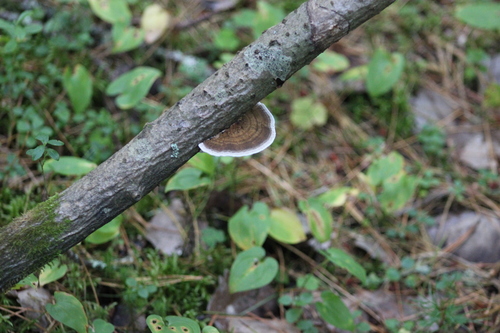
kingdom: Fungi
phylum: Basidiomycota
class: Agaricomycetes
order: Polyporales
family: Polyporaceae
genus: Daedaleopsis
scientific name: Daedaleopsis confragosa
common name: Blushing bracket
